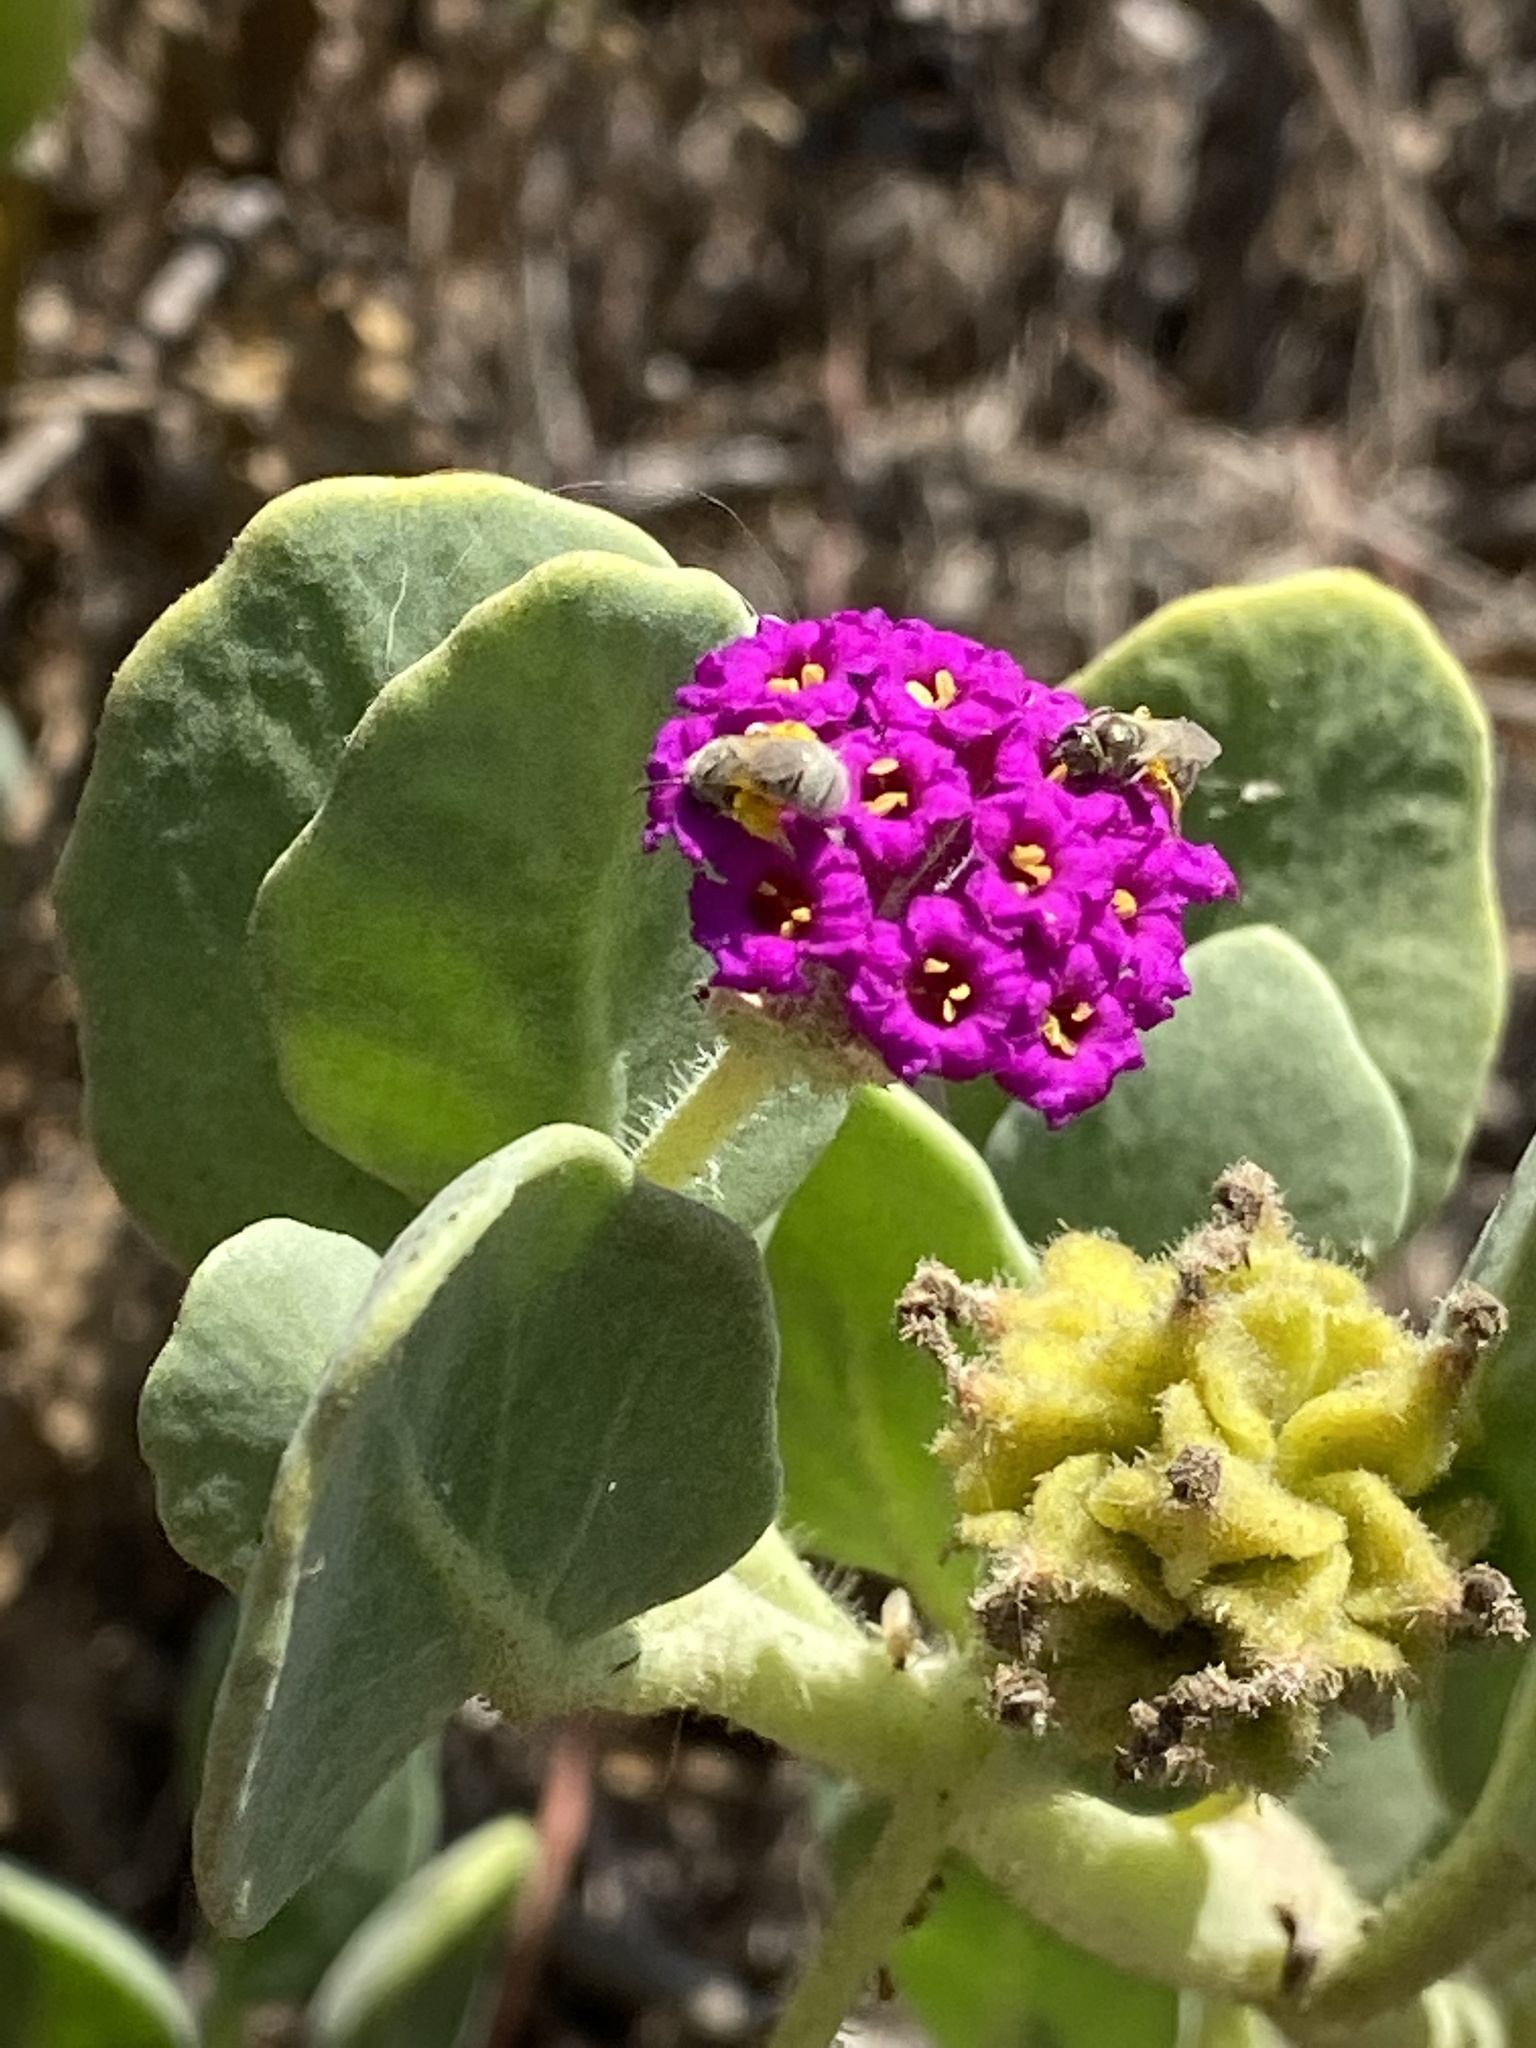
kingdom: Plantae
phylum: Tracheophyta
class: Magnoliopsida
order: Caryophyllales
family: Nyctaginaceae
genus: Abronia
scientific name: Abronia maritima
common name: Red sand-verbena
